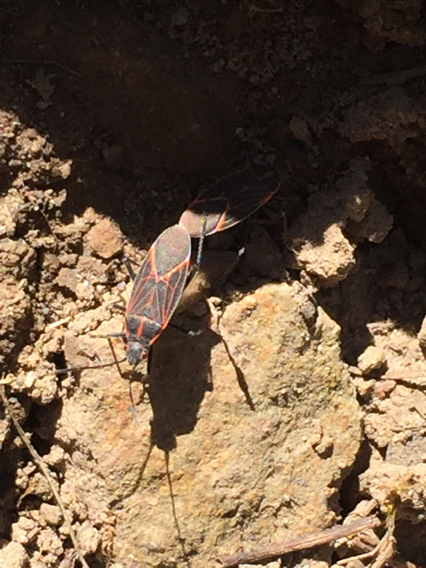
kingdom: Animalia
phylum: Arthropoda
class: Insecta
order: Hemiptera
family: Rhopalidae
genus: Boisea
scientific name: Boisea rubrolineata
